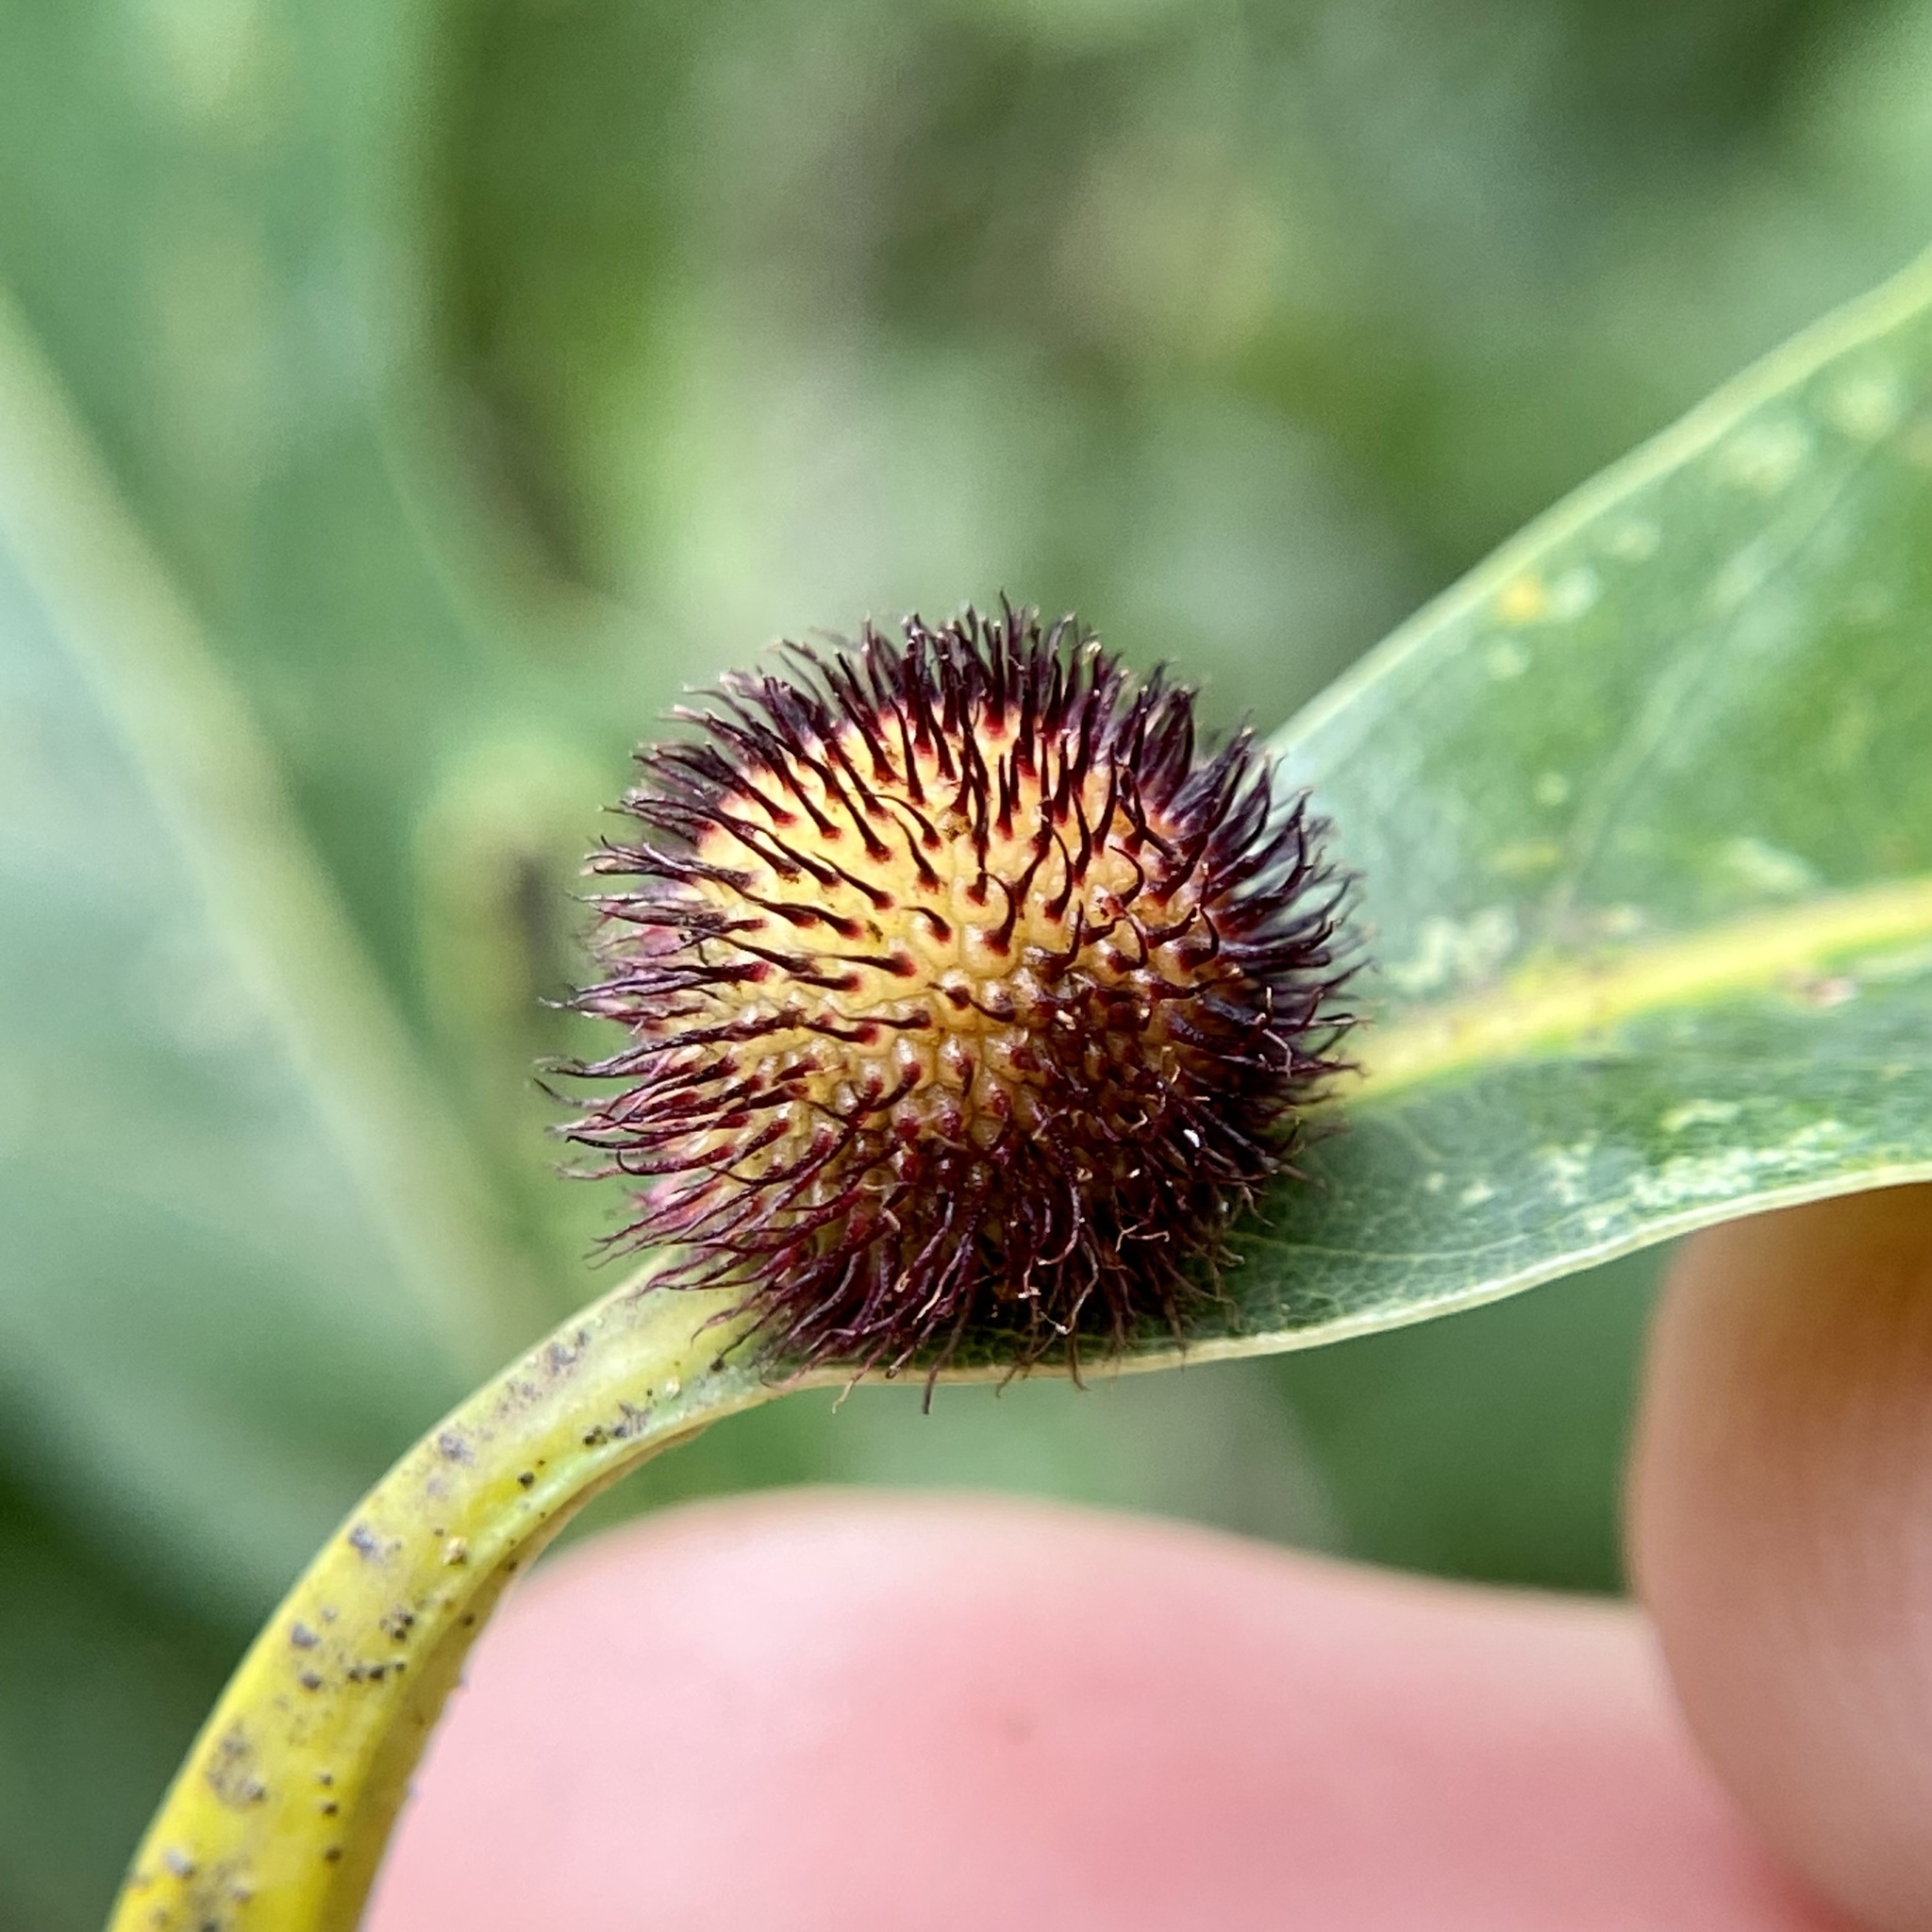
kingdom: Animalia
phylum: Arthropoda
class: Insecta
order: Hymenoptera
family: Cynipidae
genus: Acraspis
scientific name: Acraspis erinacei
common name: Hedgehog gall wasp
